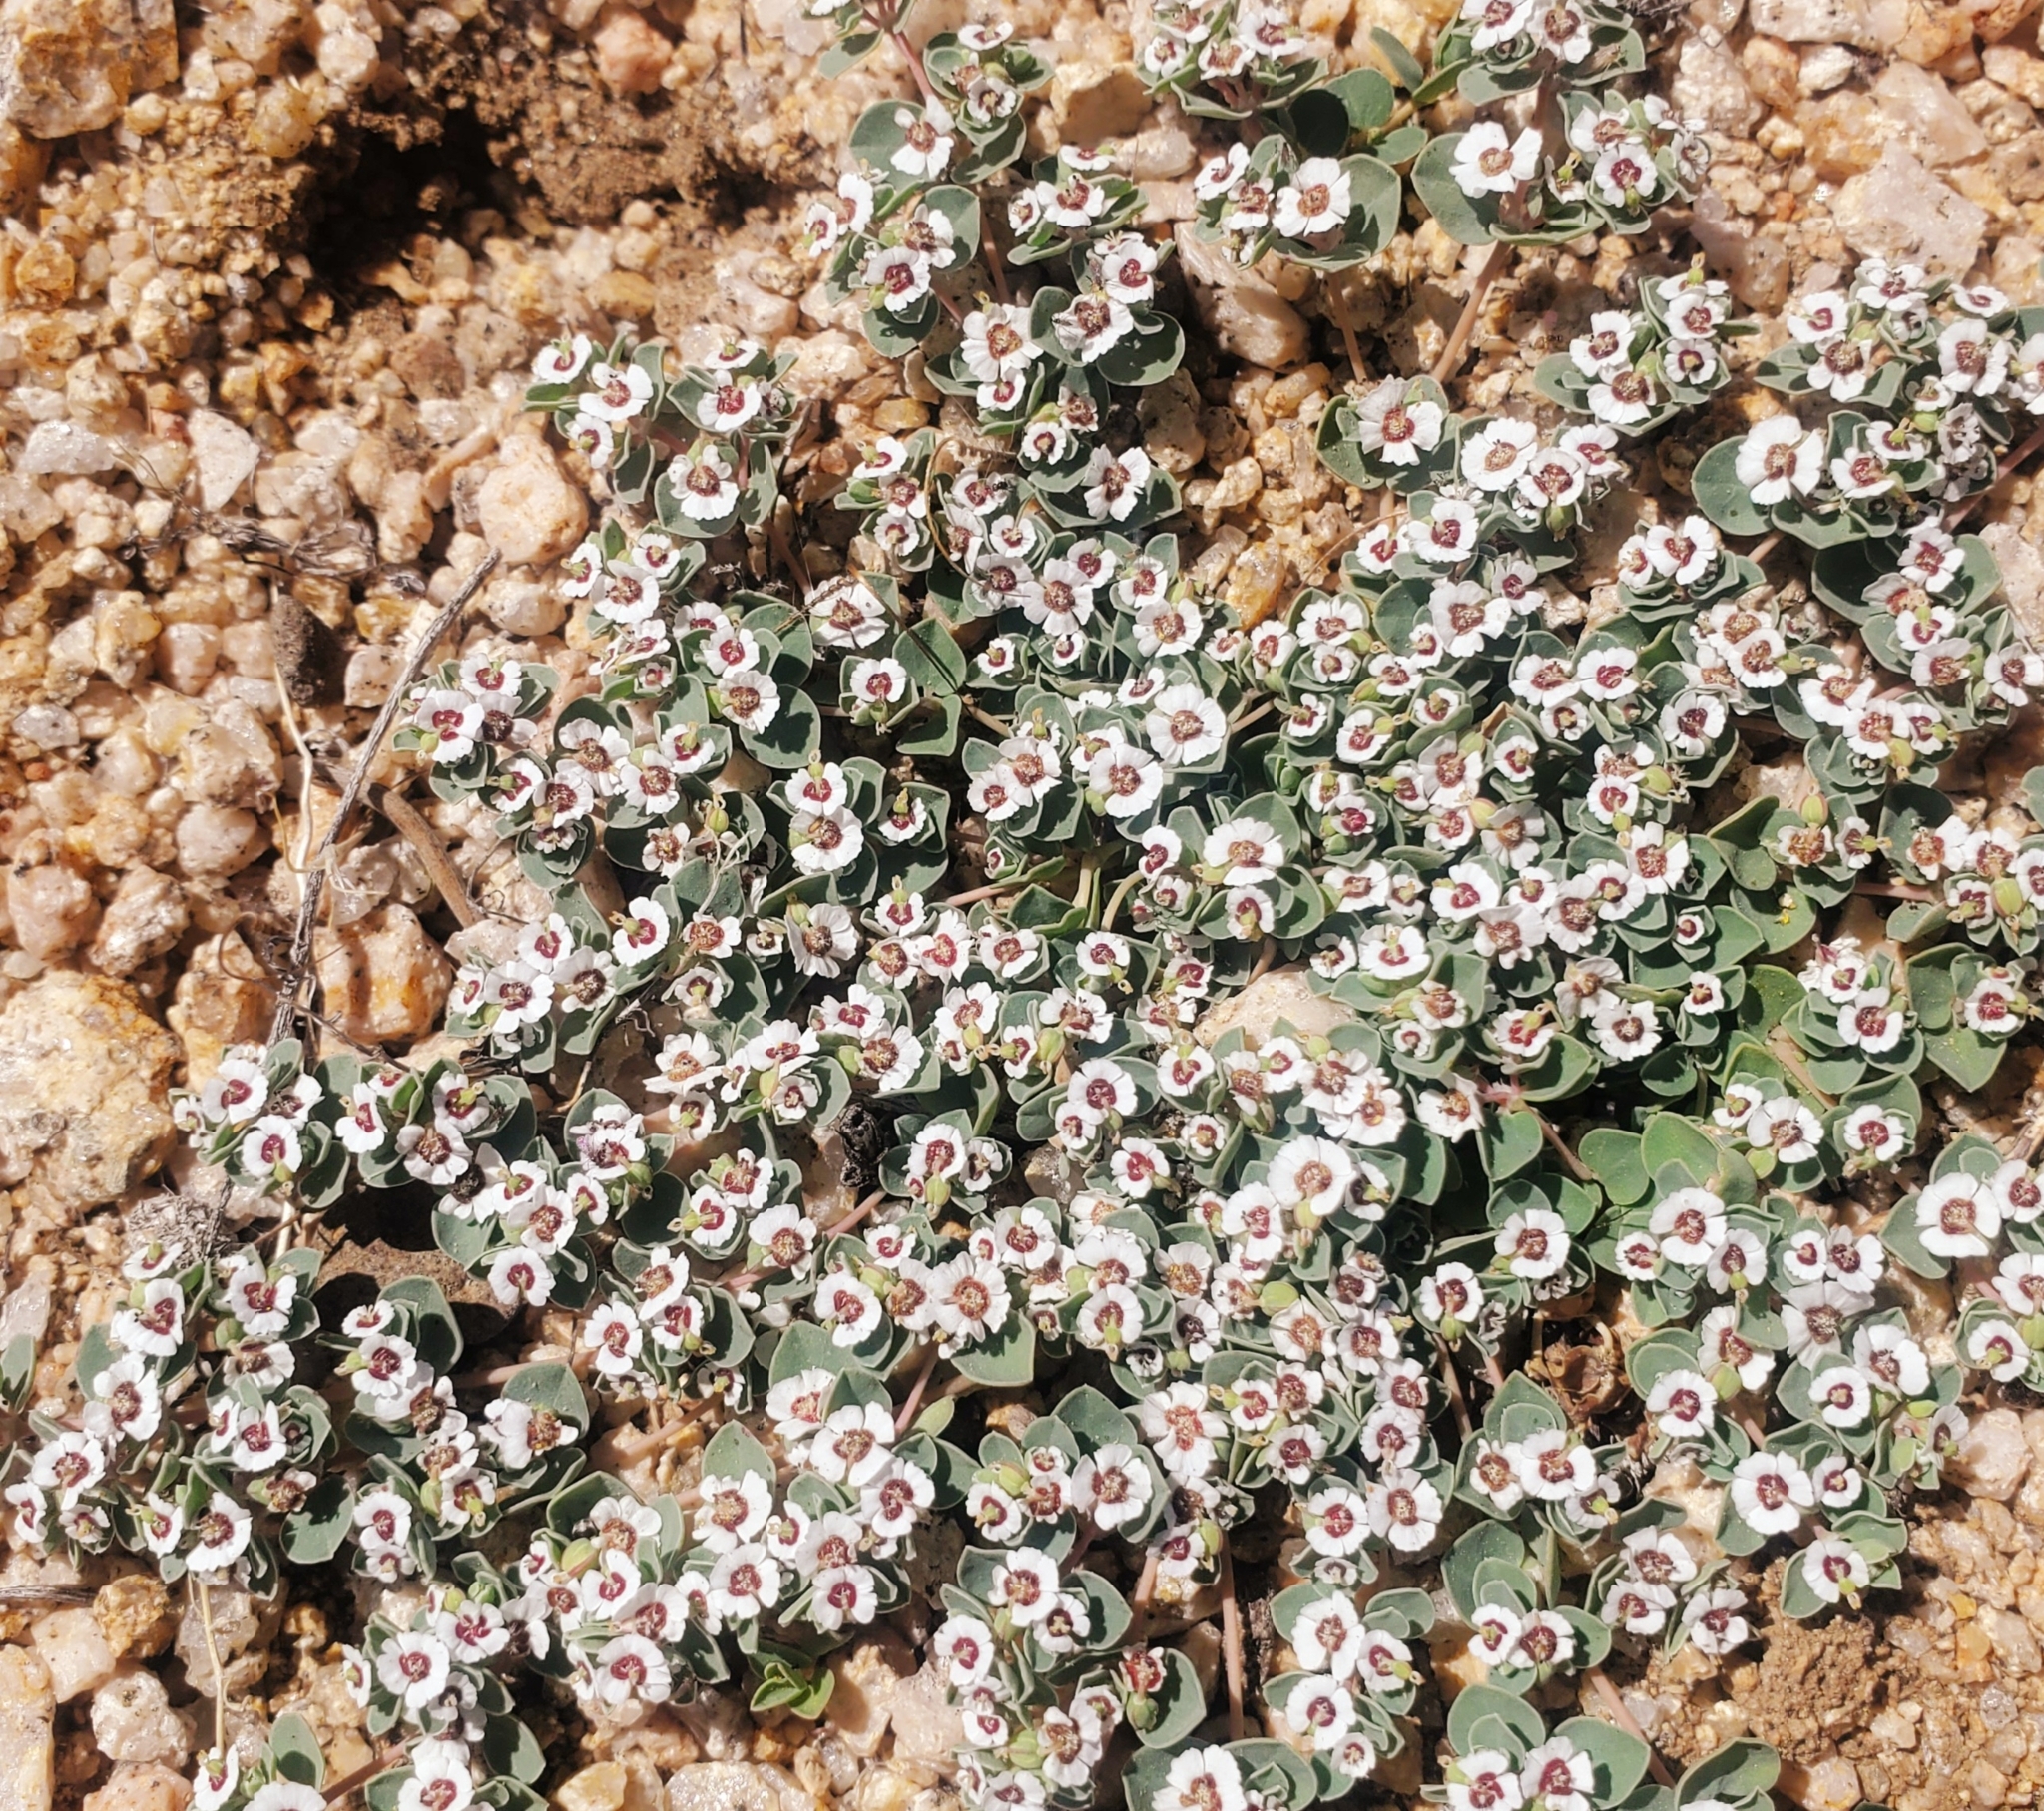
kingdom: Plantae
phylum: Tracheophyta
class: Magnoliopsida
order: Malpighiales
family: Euphorbiaceae
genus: Euphorbia
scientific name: Euphorbia albomarginata
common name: Whitemargin sandmat
